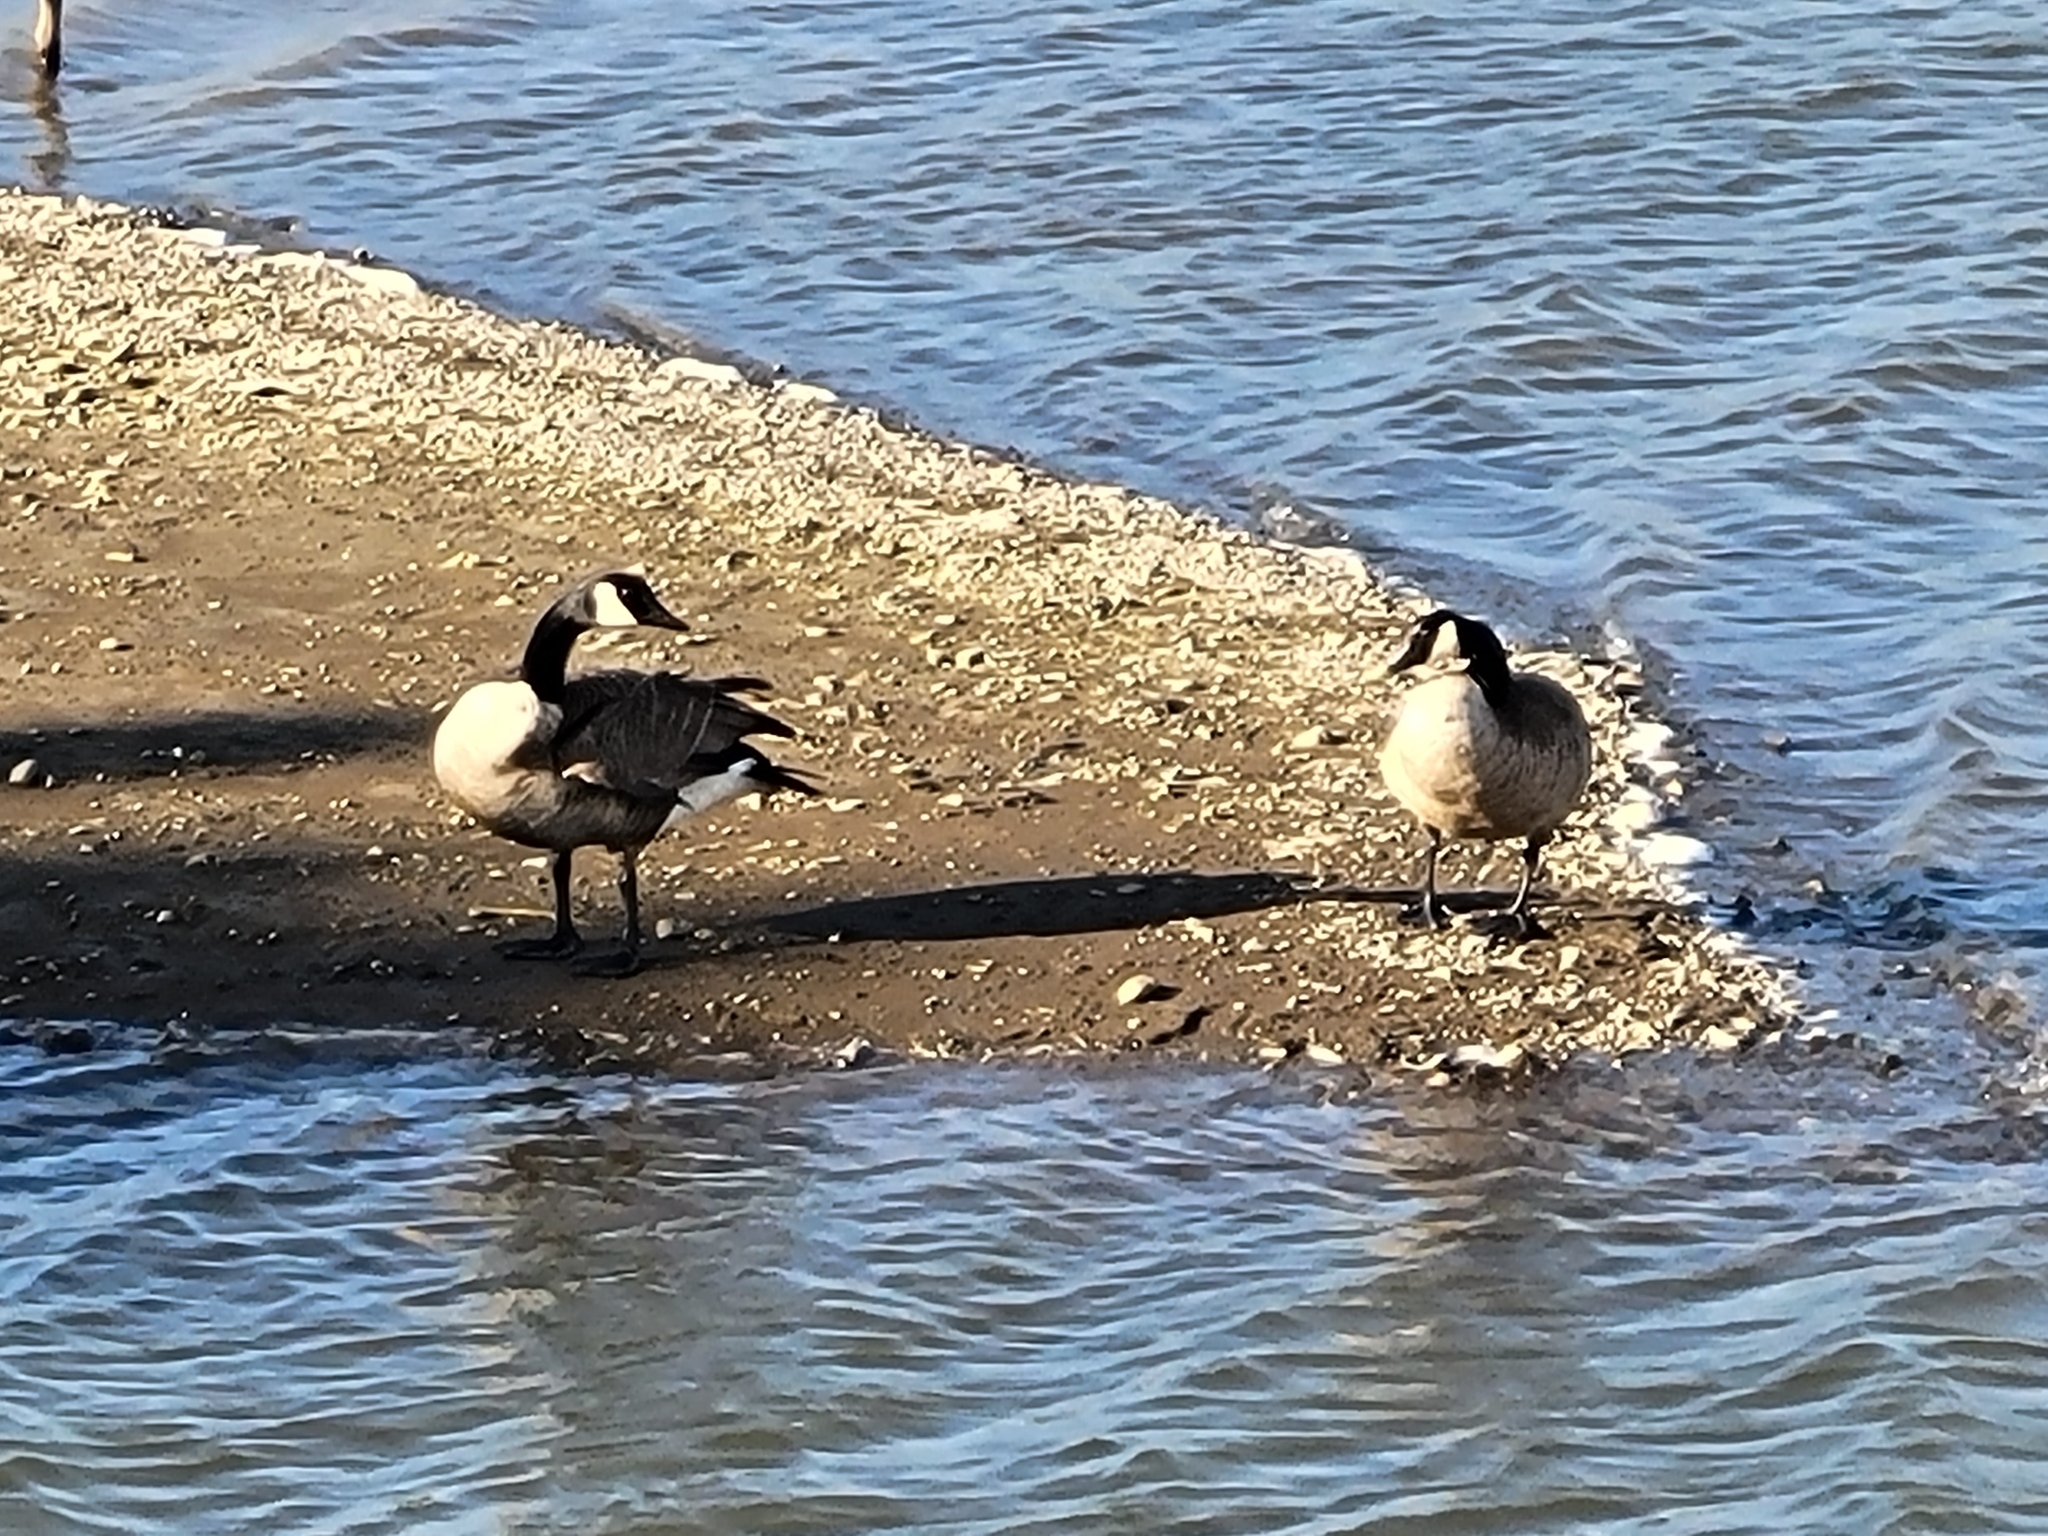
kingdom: Animalia
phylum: Chordata
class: Aves
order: Anseriformes
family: Anatidae
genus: Branta
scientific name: Branta canadensis
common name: Canada goose
